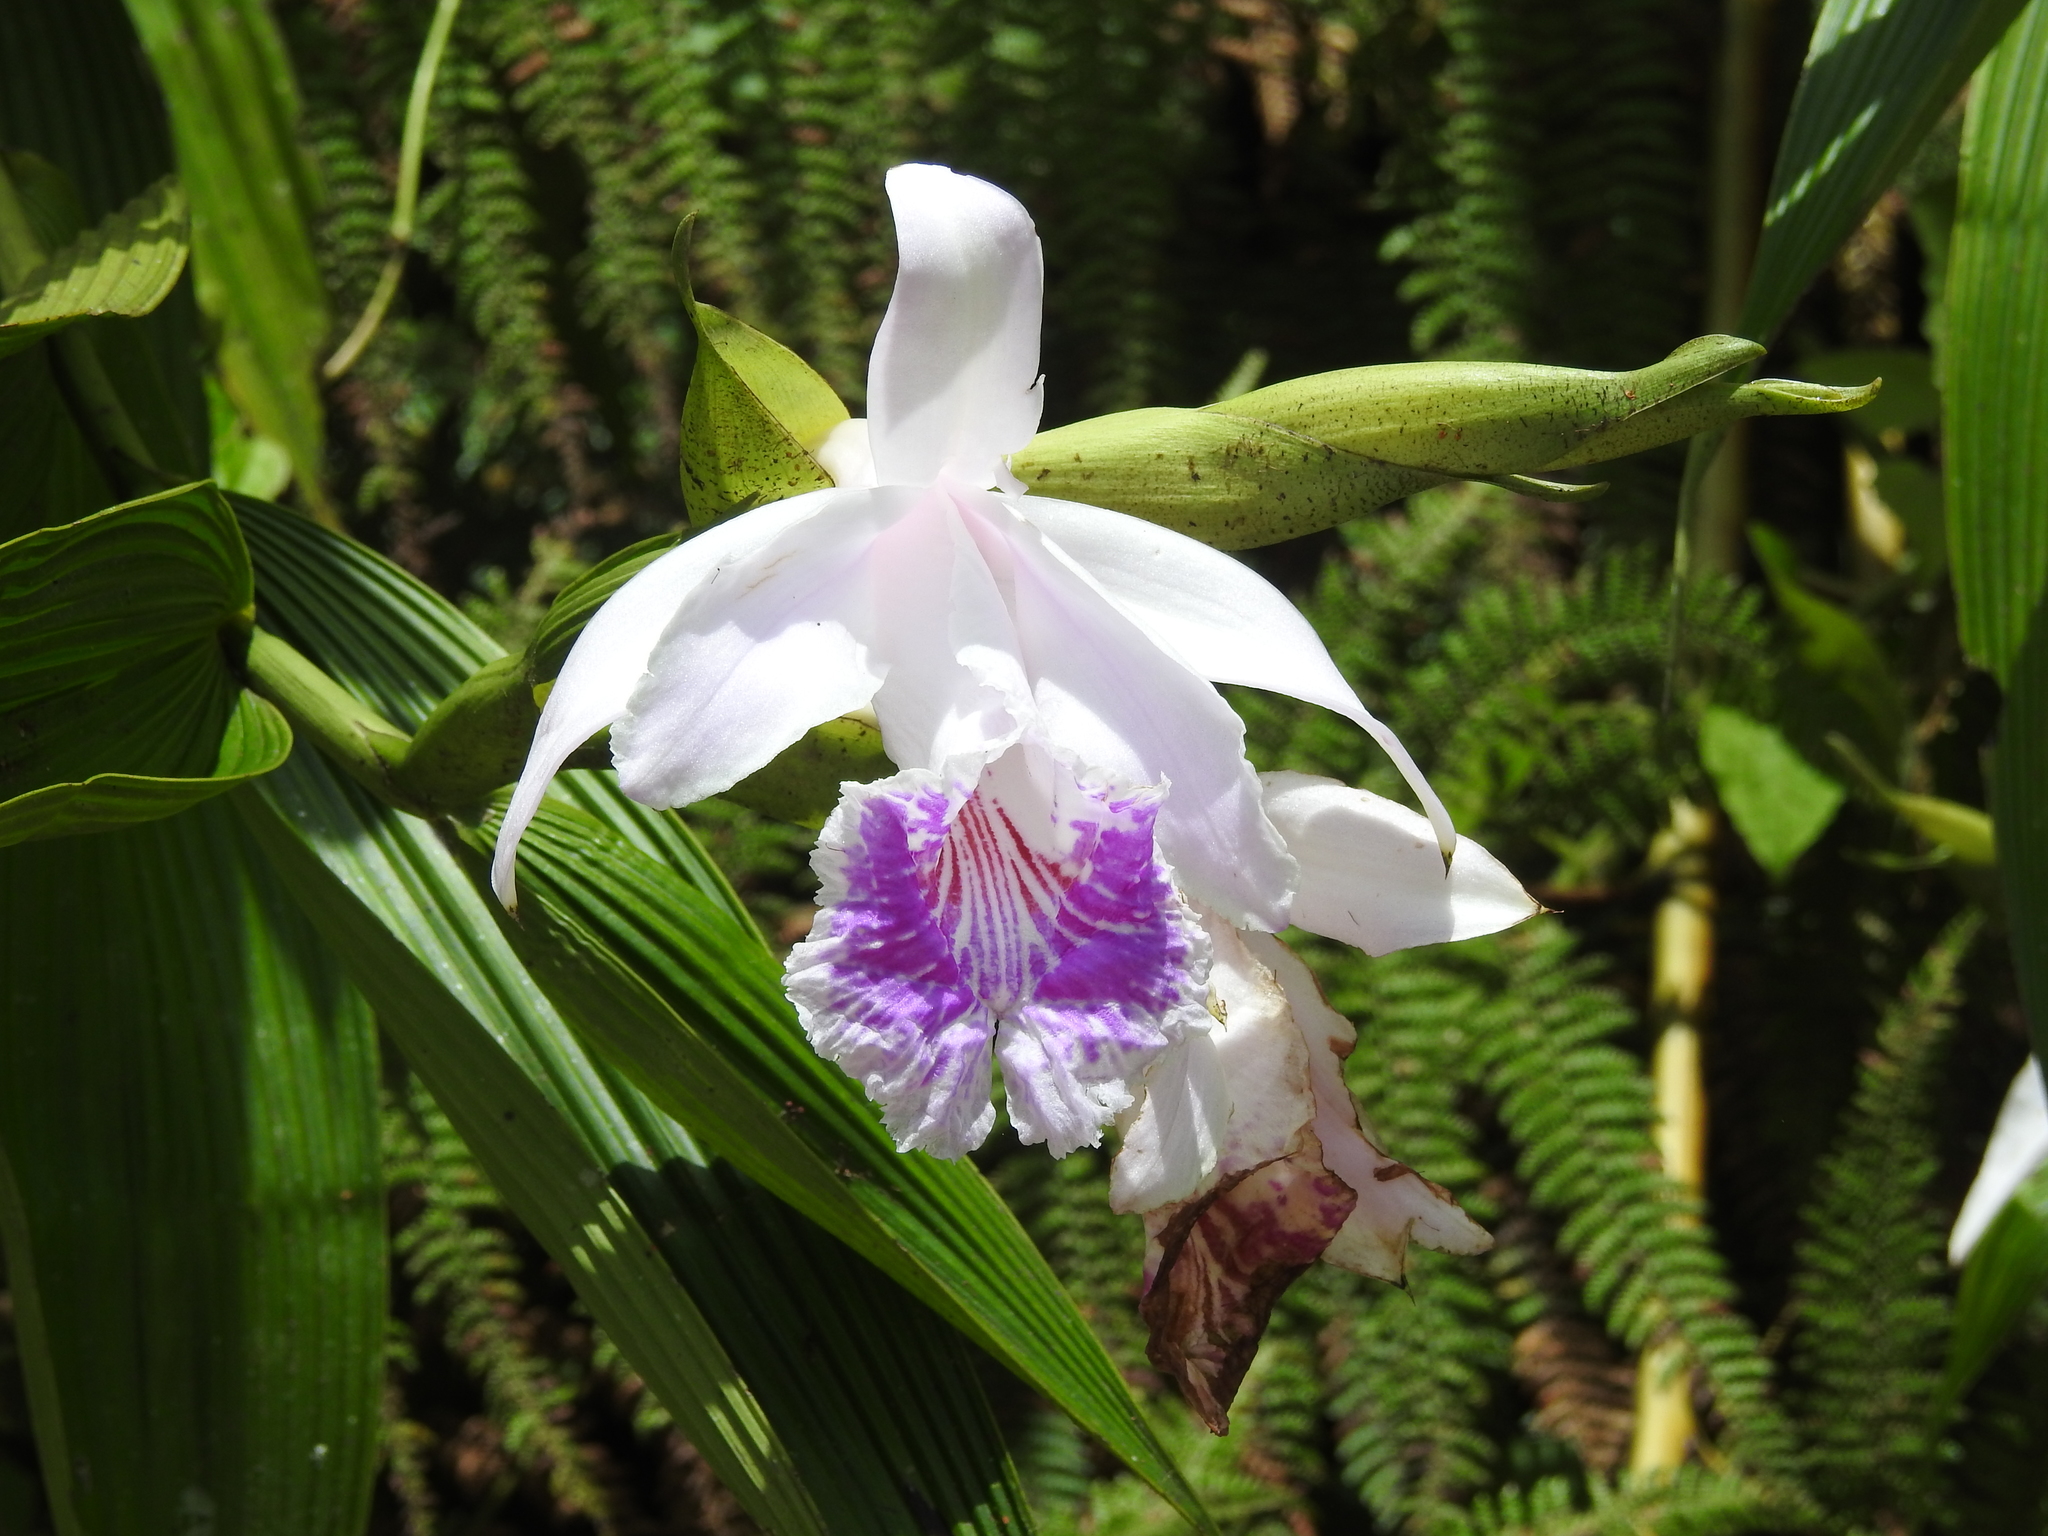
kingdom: Plantae
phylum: Tracheophyta
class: Liliopsida
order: Asparagales
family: Orchidaceae
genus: Sobralia
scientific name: Sobralia rosea
